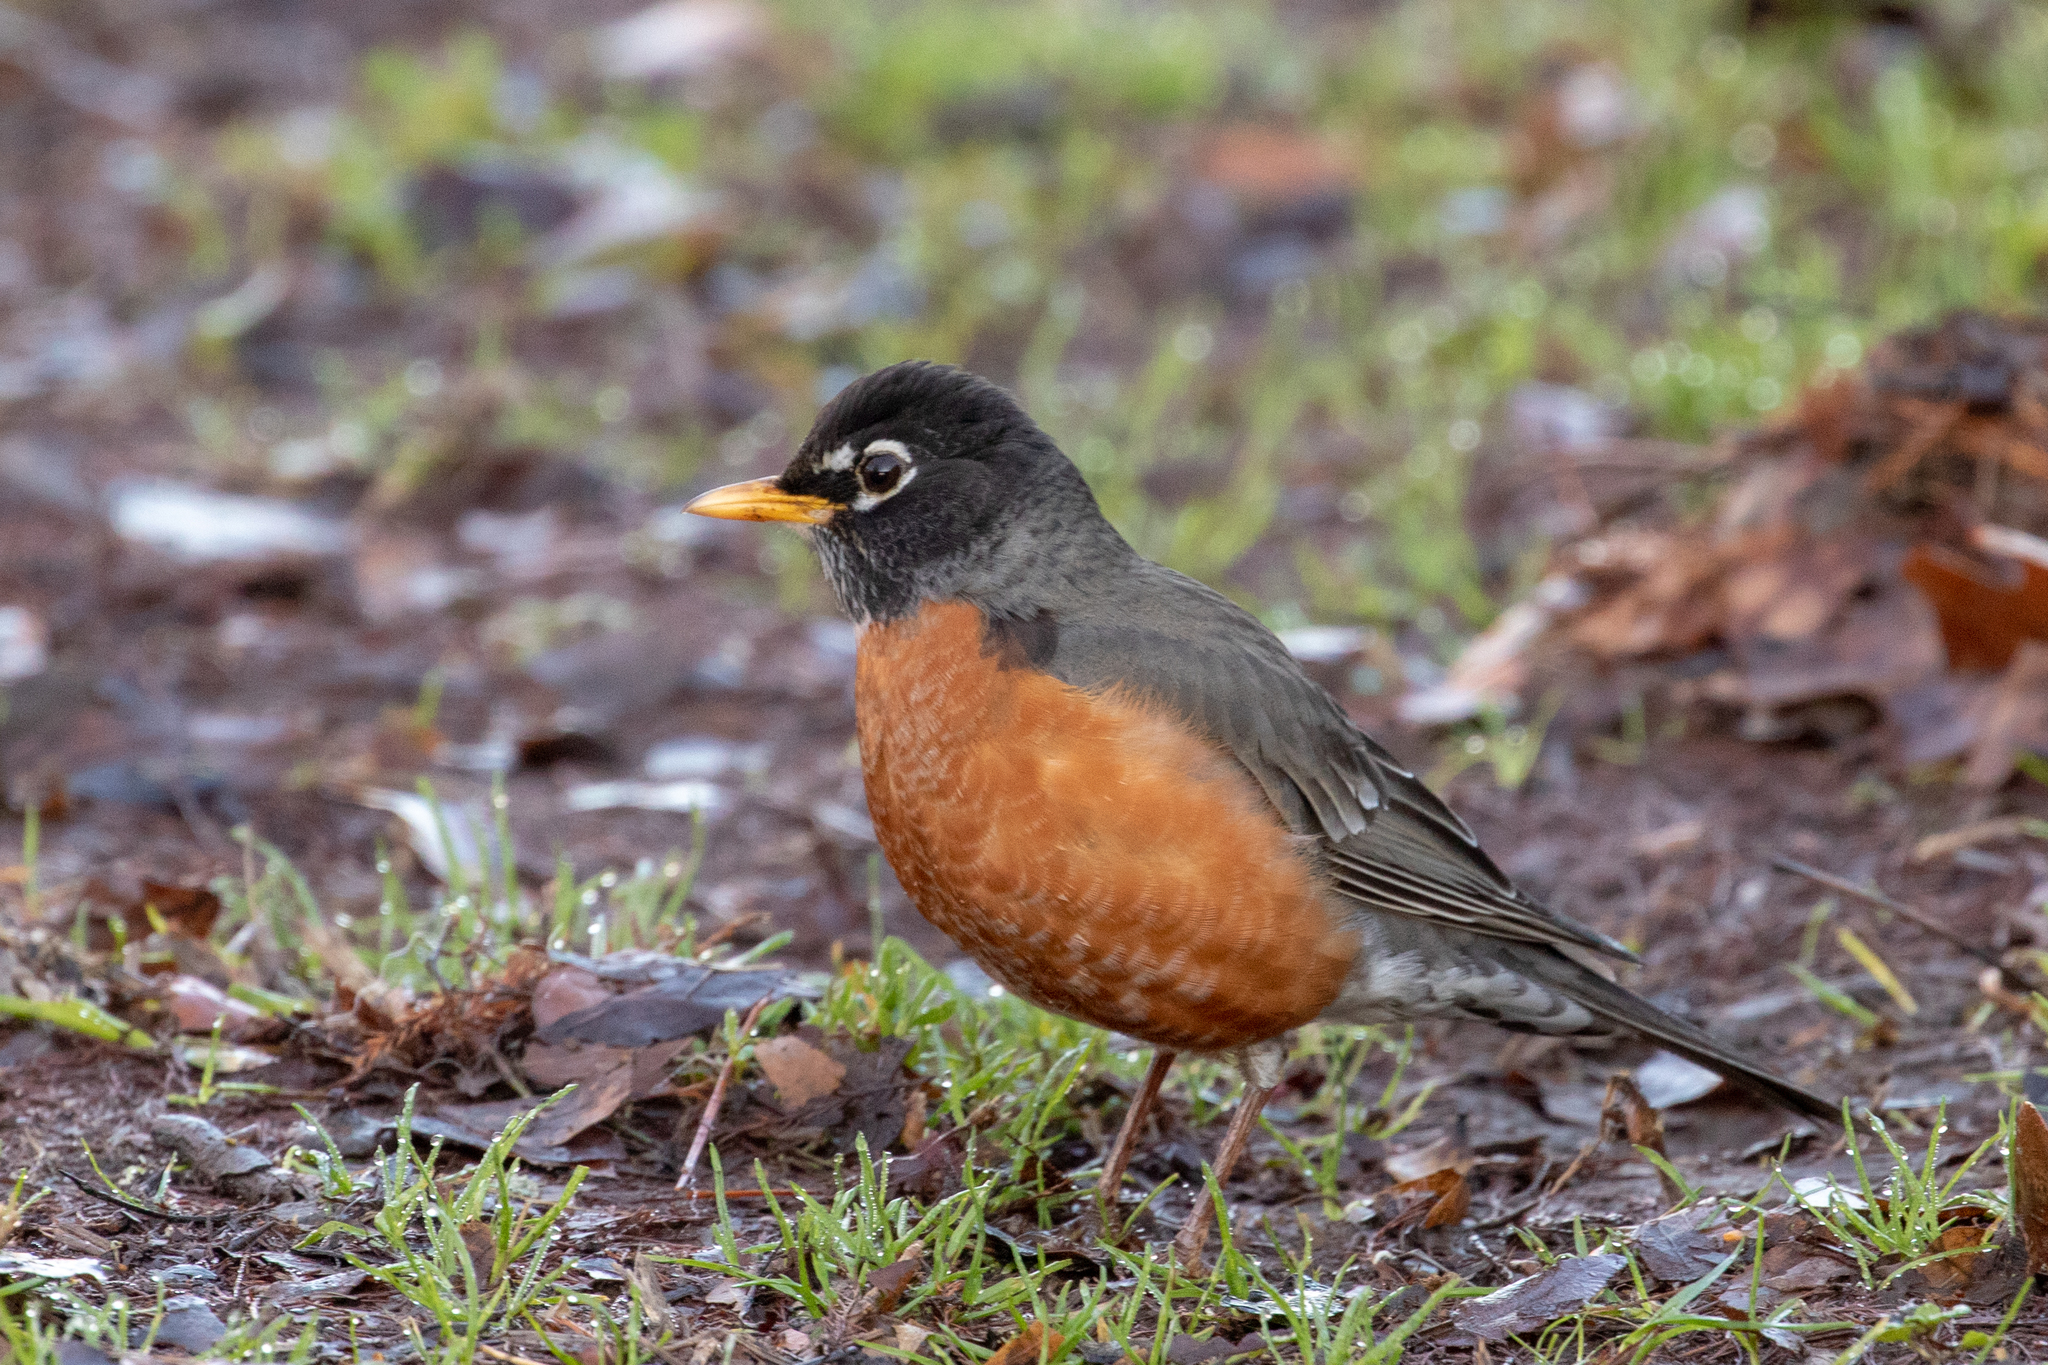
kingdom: Animalia
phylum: Chordata
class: Aves
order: Passeriformes
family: Turdidae
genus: Turdus
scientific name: Turdus migratorius
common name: American robin
